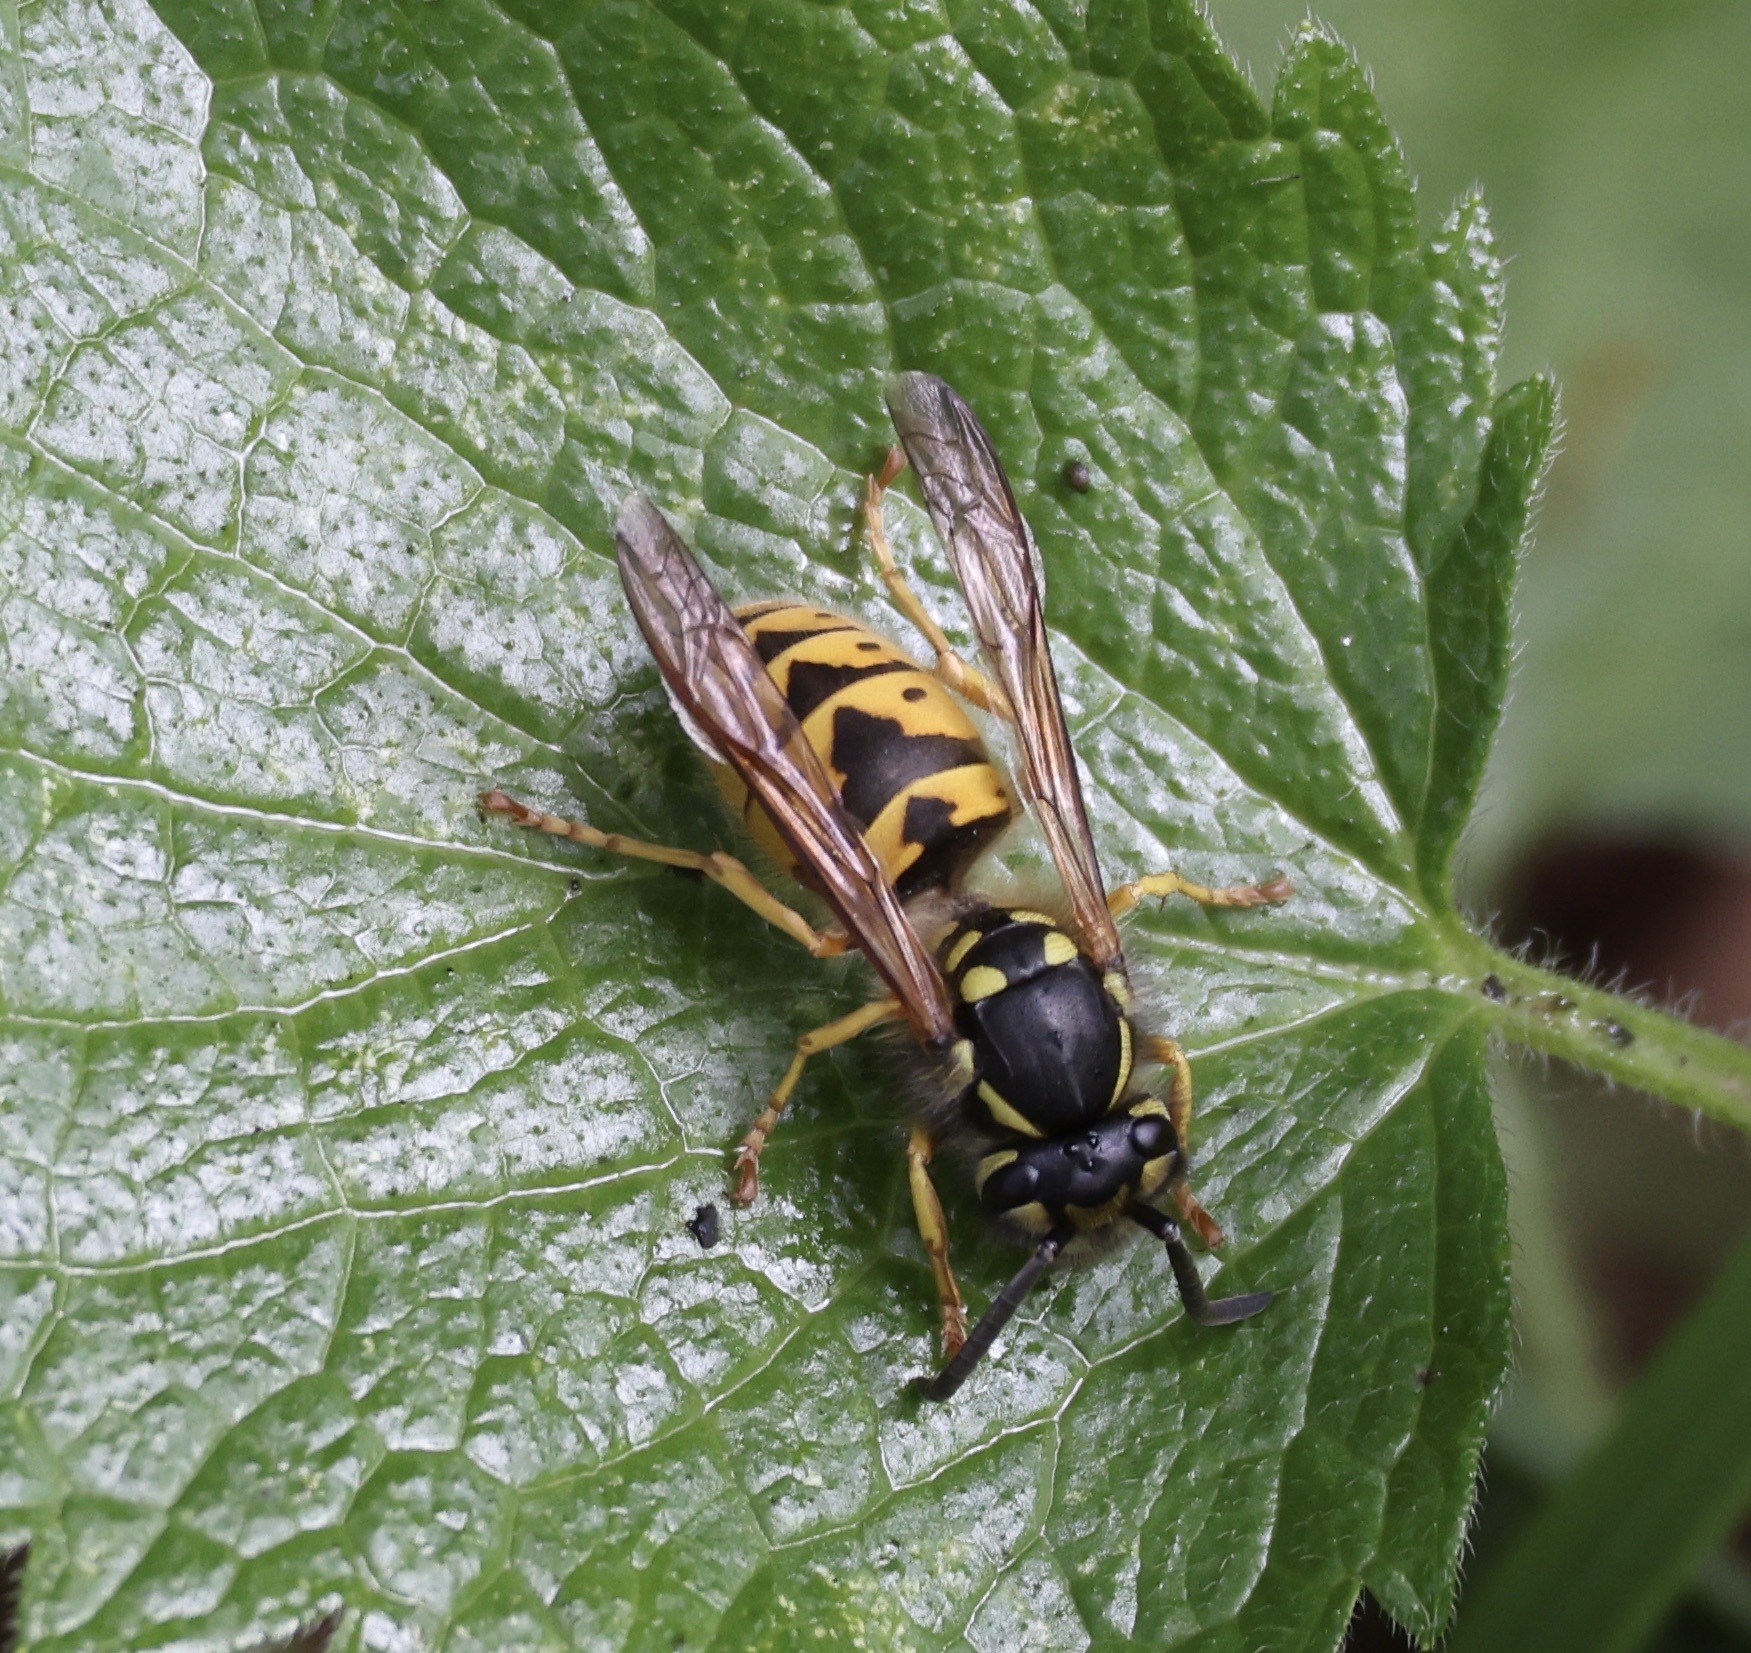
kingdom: Animalia
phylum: Arthropoda
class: Insecta
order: Hymenoptera
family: Vespidae
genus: Vespula
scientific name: Vespula germanica
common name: German wasp
